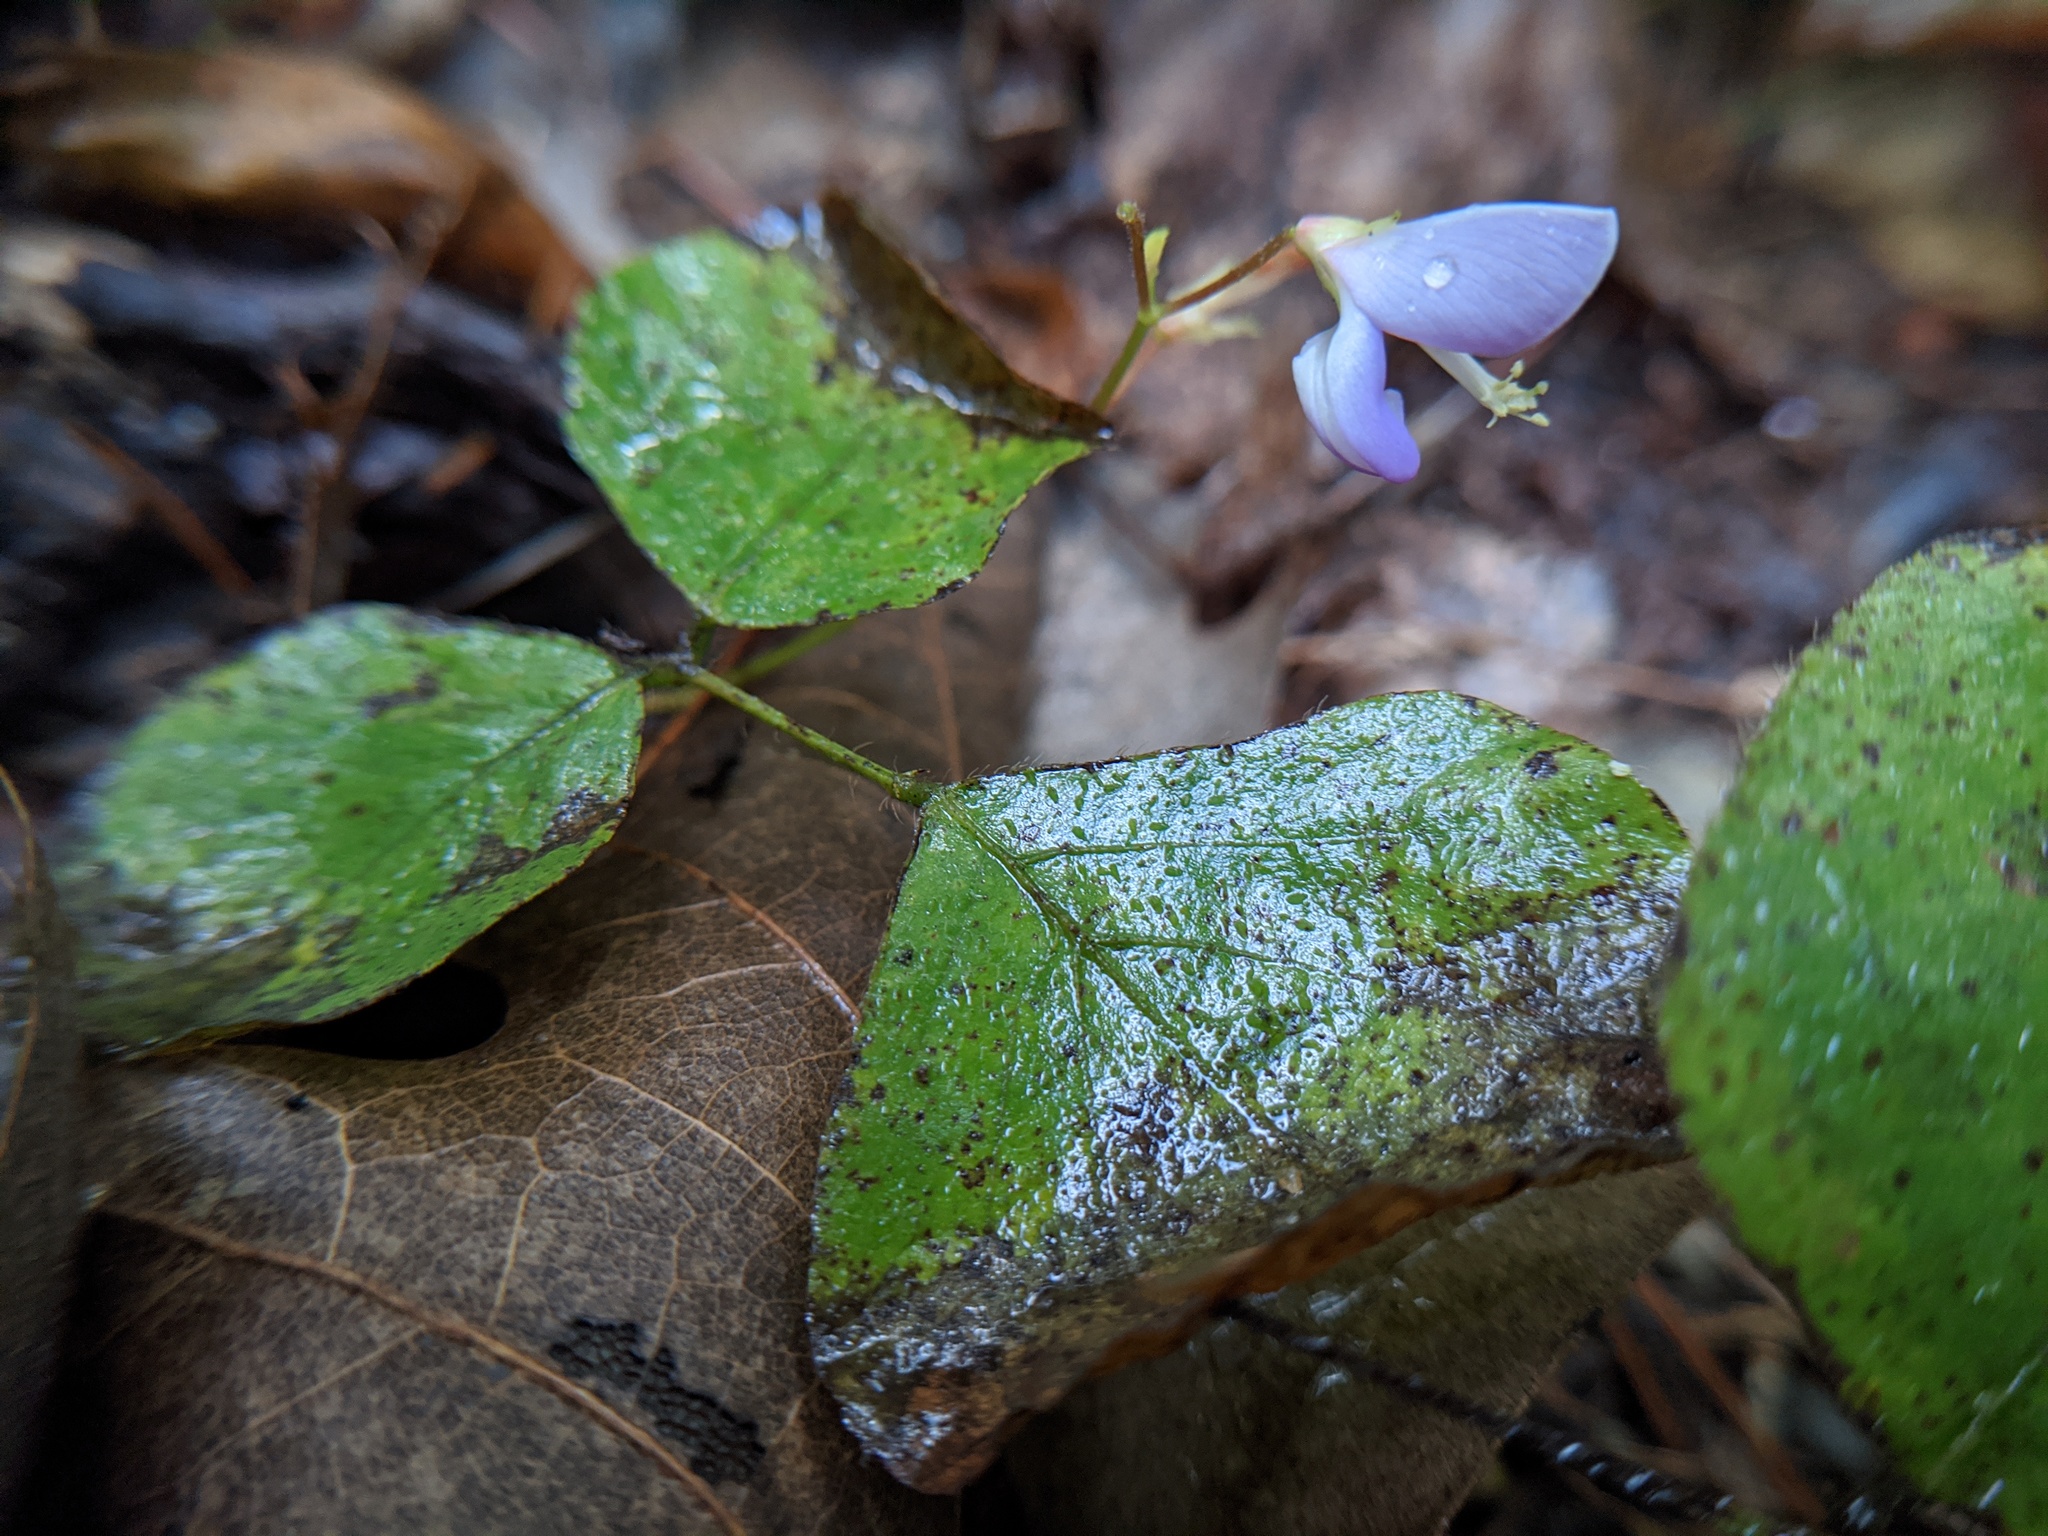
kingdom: Plantae
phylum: Tracheophyta
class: Magnoliopsida
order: Fabales
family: Fabaceae
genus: Desmodium
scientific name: Desmodium rotundifolium
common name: Dollarleaf
